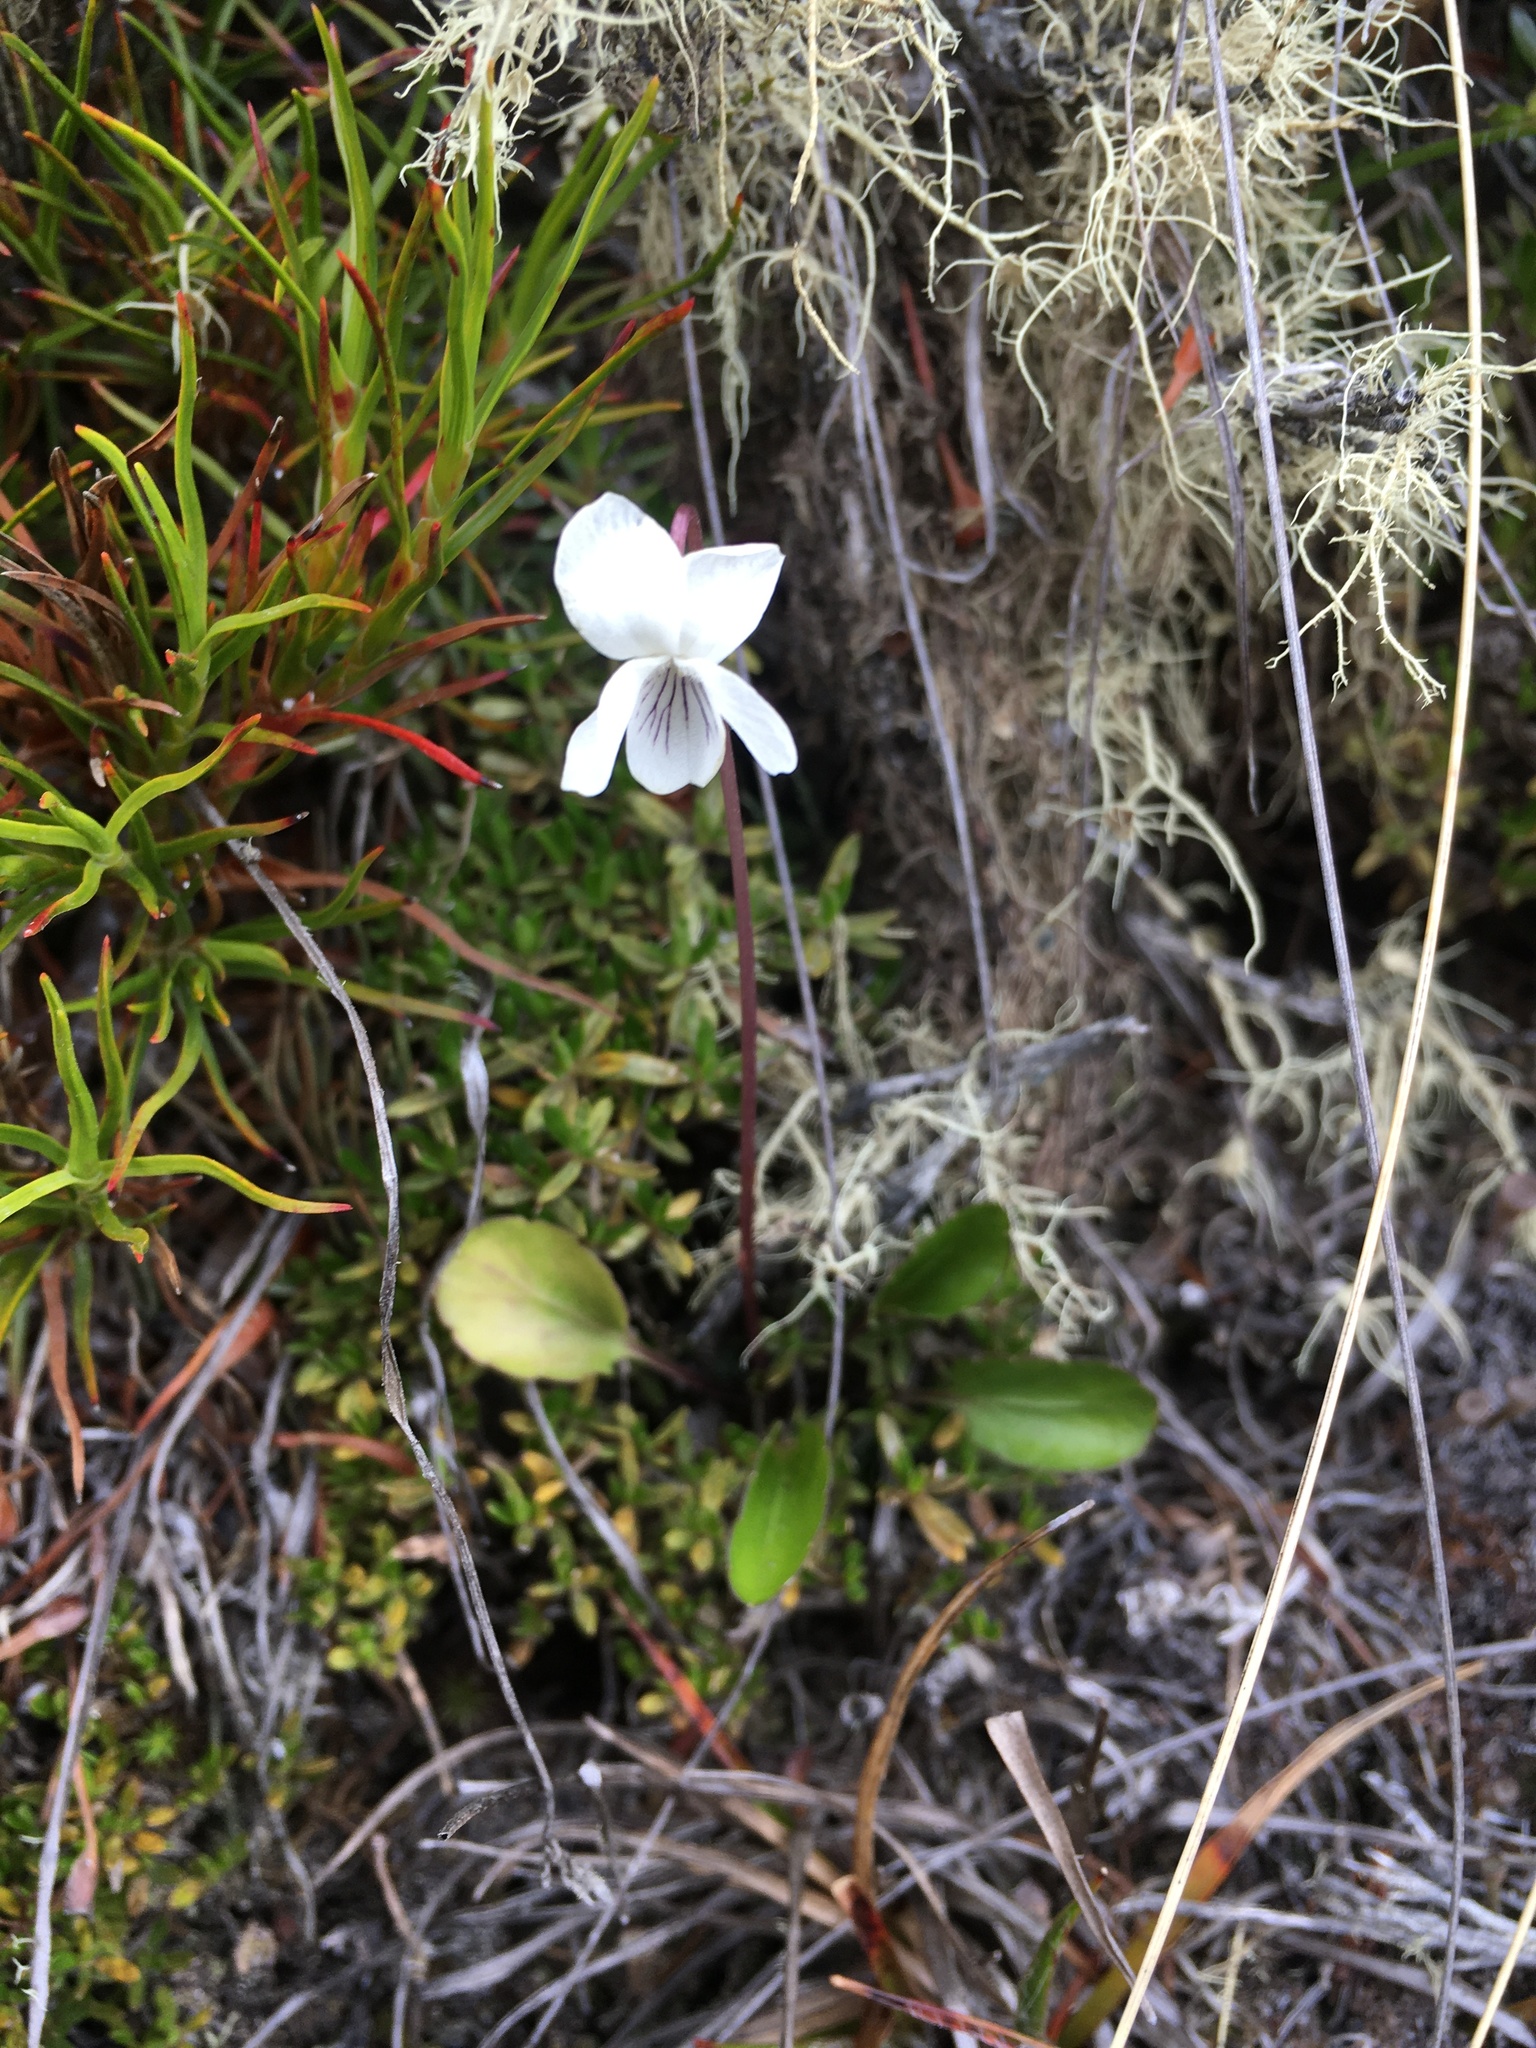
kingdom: Plantae
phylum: Tracheophyta
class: Magnoliopsida
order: Malpighiales
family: Violaceae
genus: Viola
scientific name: Viola cunninghamii
